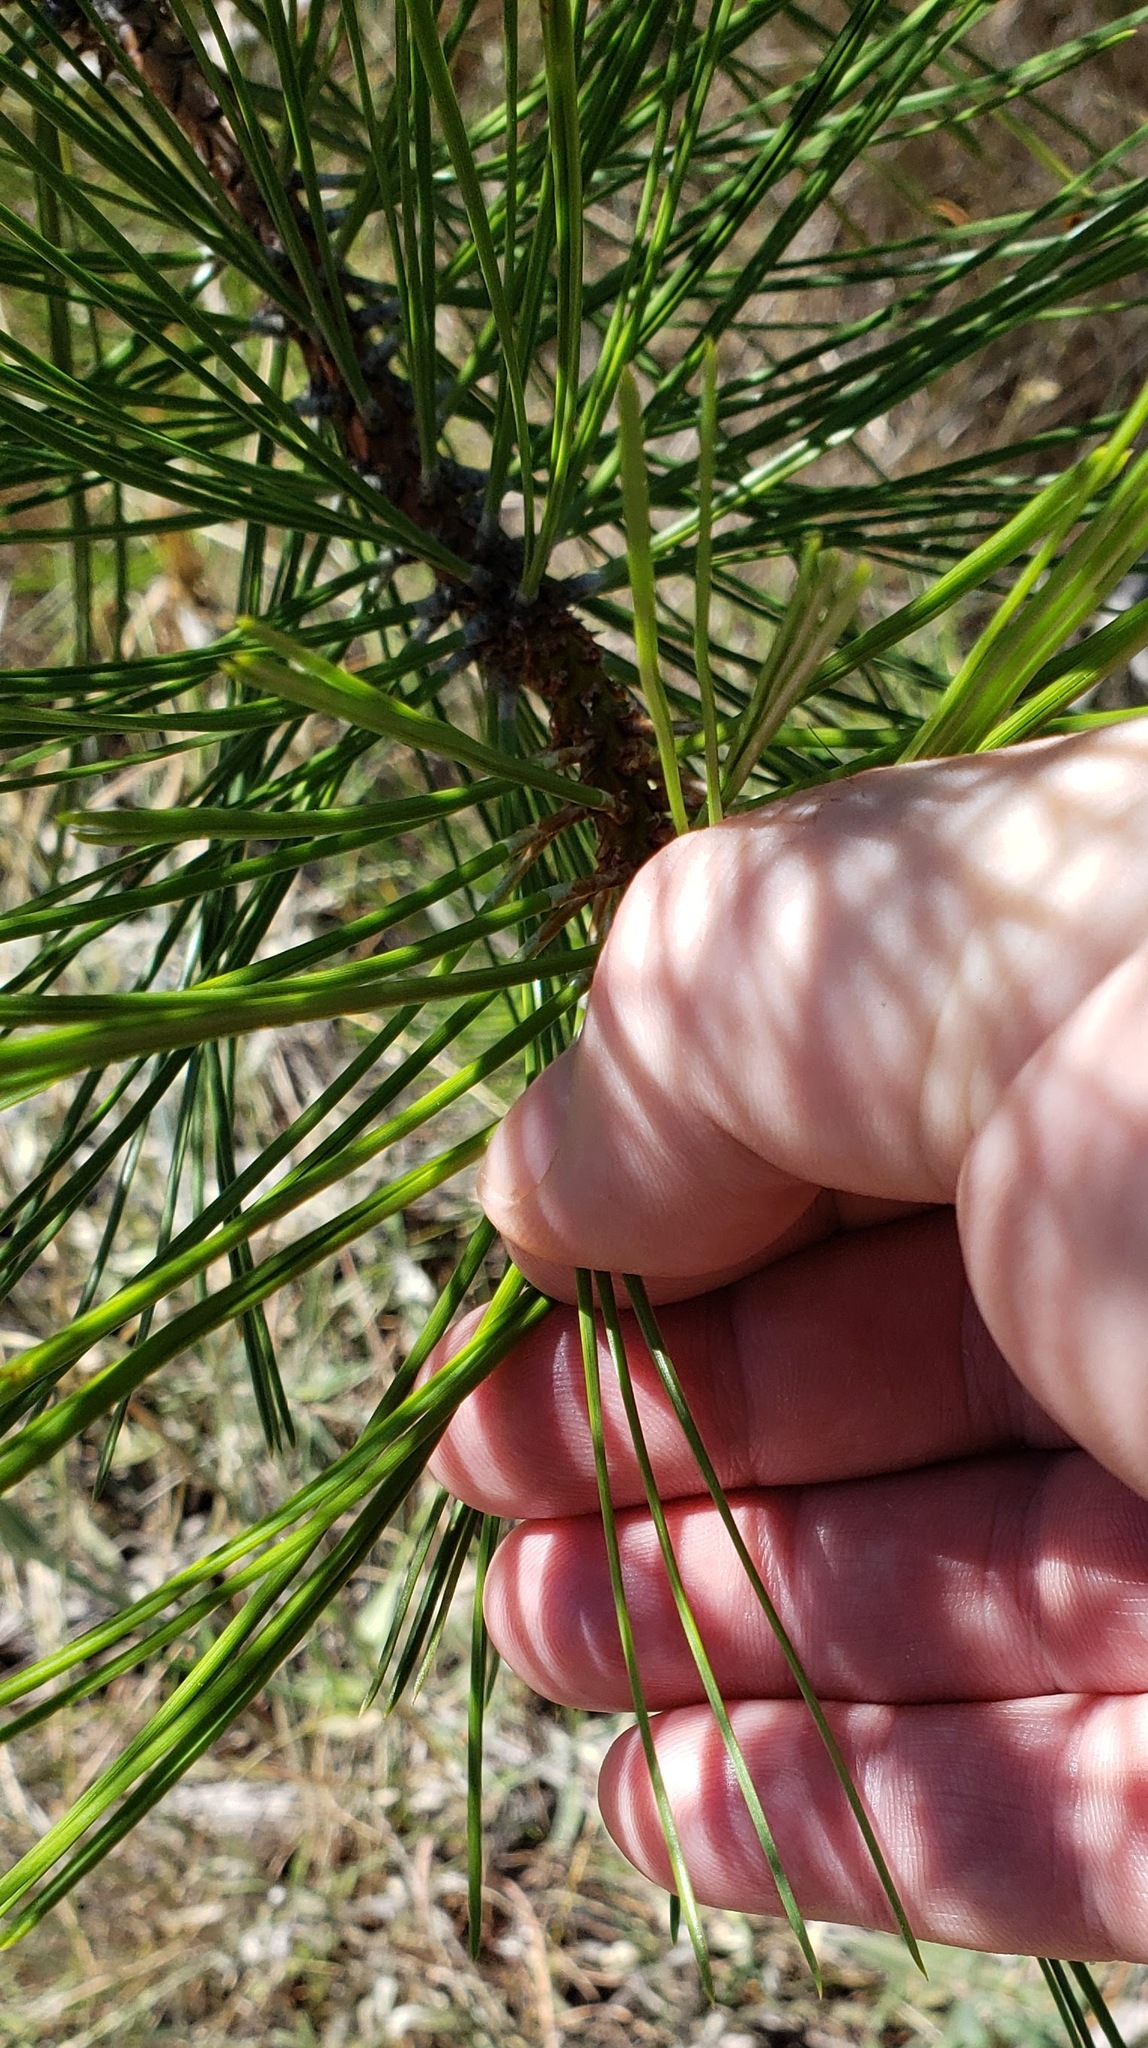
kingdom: Plantae
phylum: Tracheophyta
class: Pinopsida
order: Pinales
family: Pinaceae
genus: Pinus
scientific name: Pinus ponderosa
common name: Western yellow-pine
